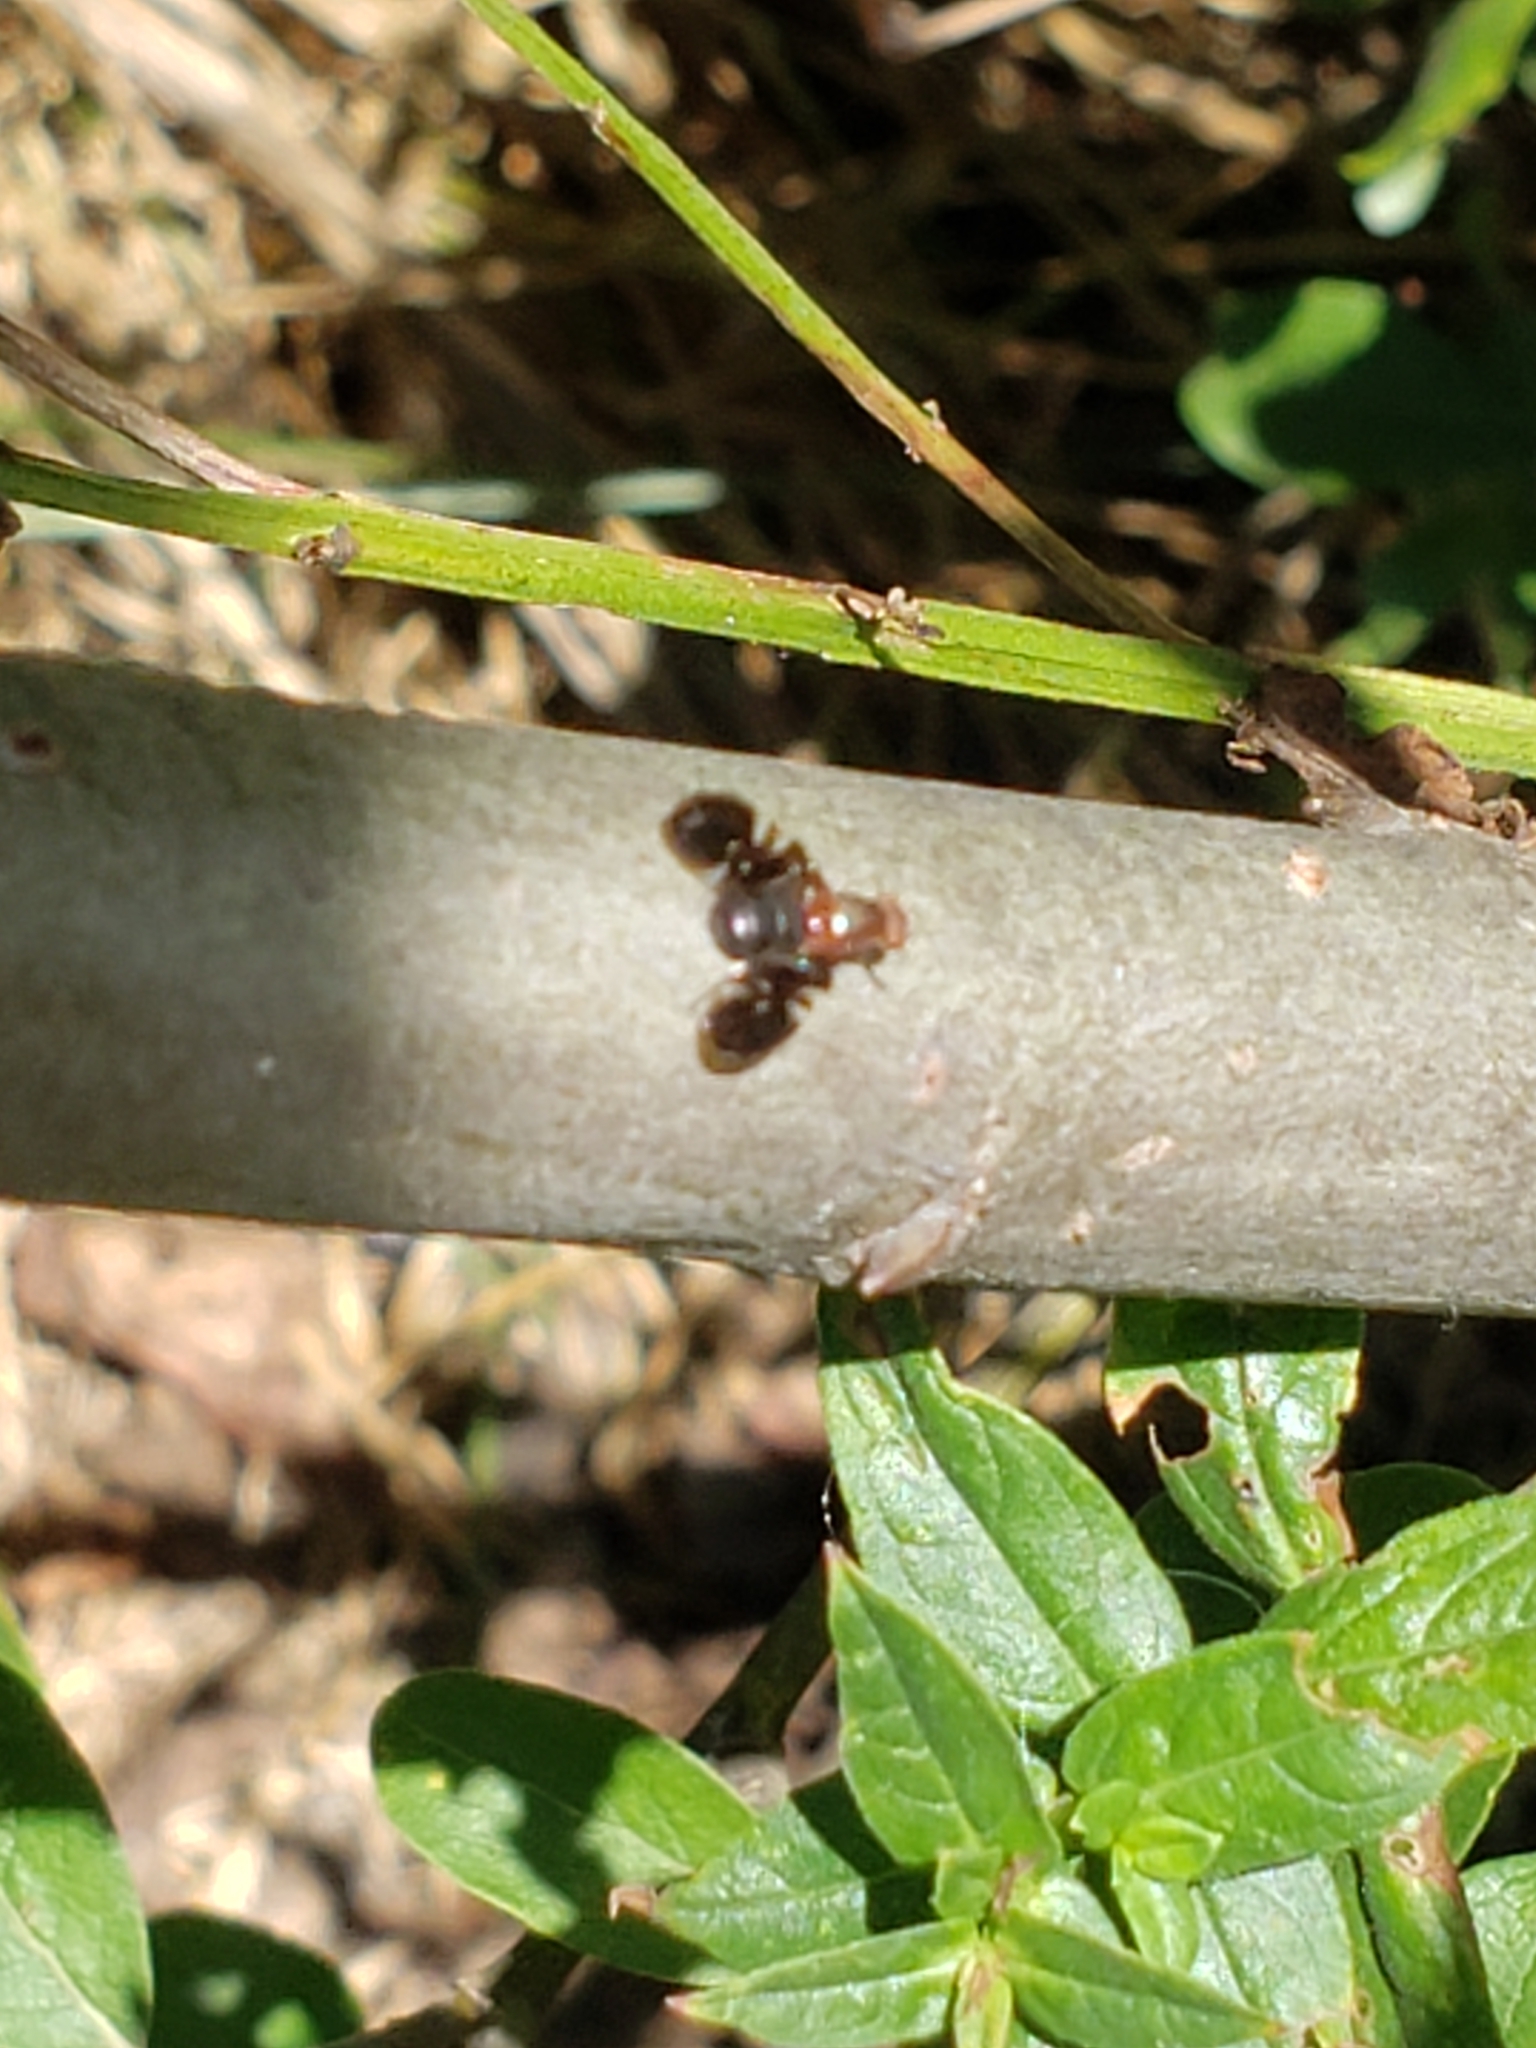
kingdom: Animalia
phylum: Arthropoda
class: Insecta
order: Diptera
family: Ulidiidae
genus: Delphinia
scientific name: Delphinia picta
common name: Common picture-winged fly
